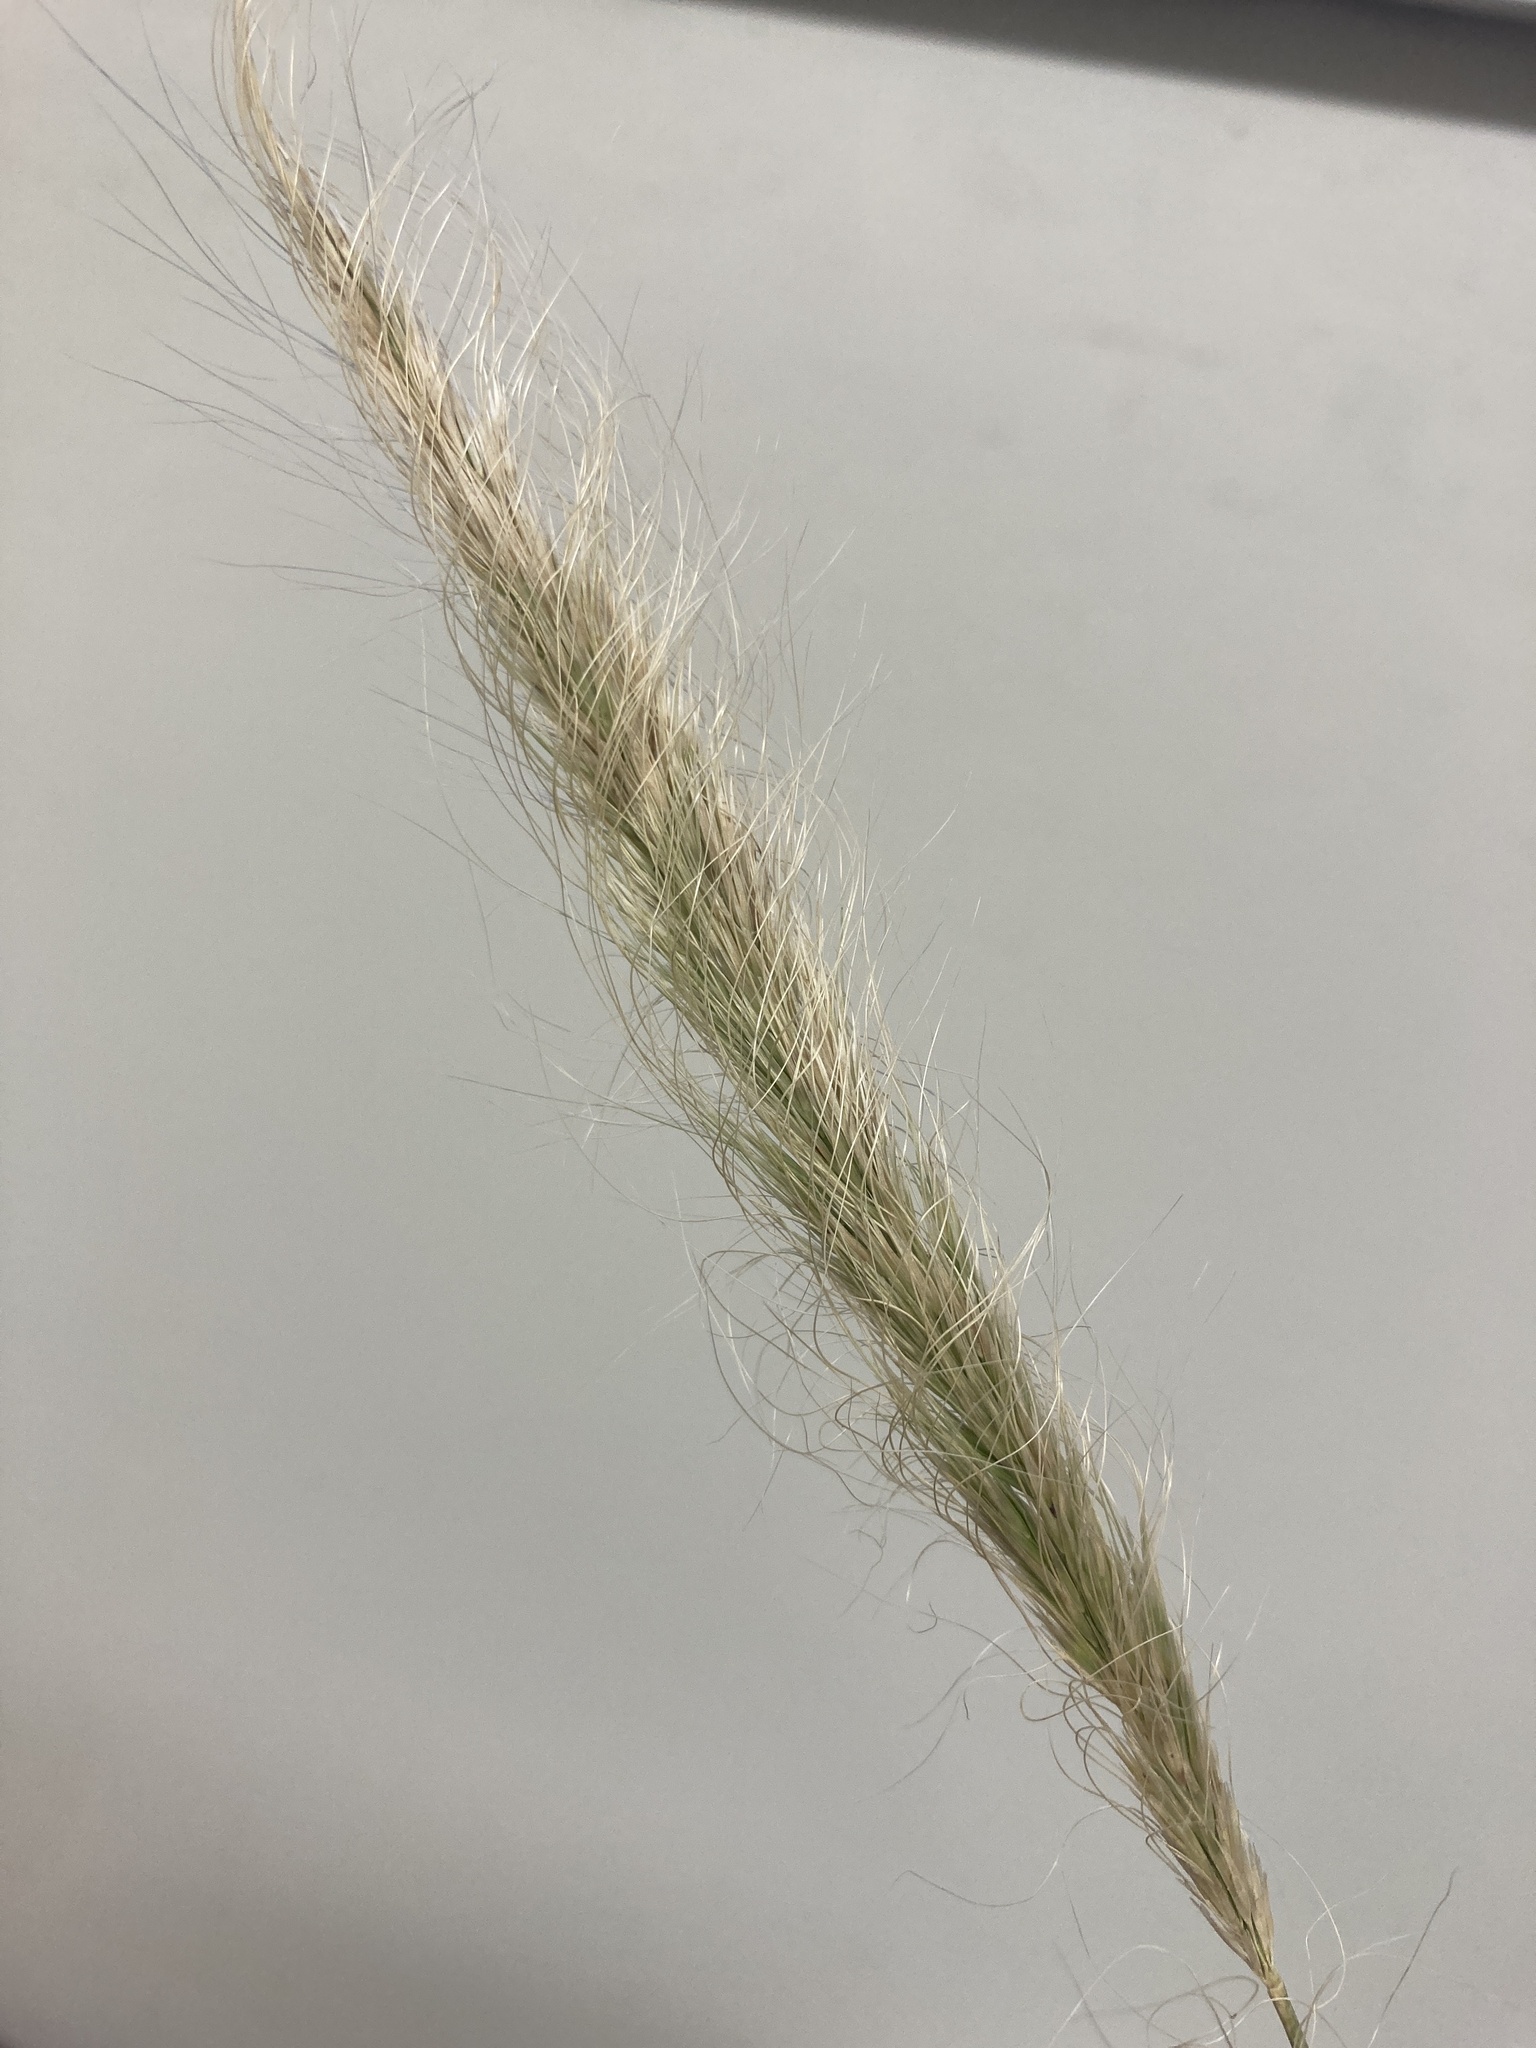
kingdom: Plantae
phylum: Tracheophyta
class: Liliopsida
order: Poales
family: Poaceae
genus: Dichelachne
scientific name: Dichelachne crinita
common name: Clovenfoot plumegrass
